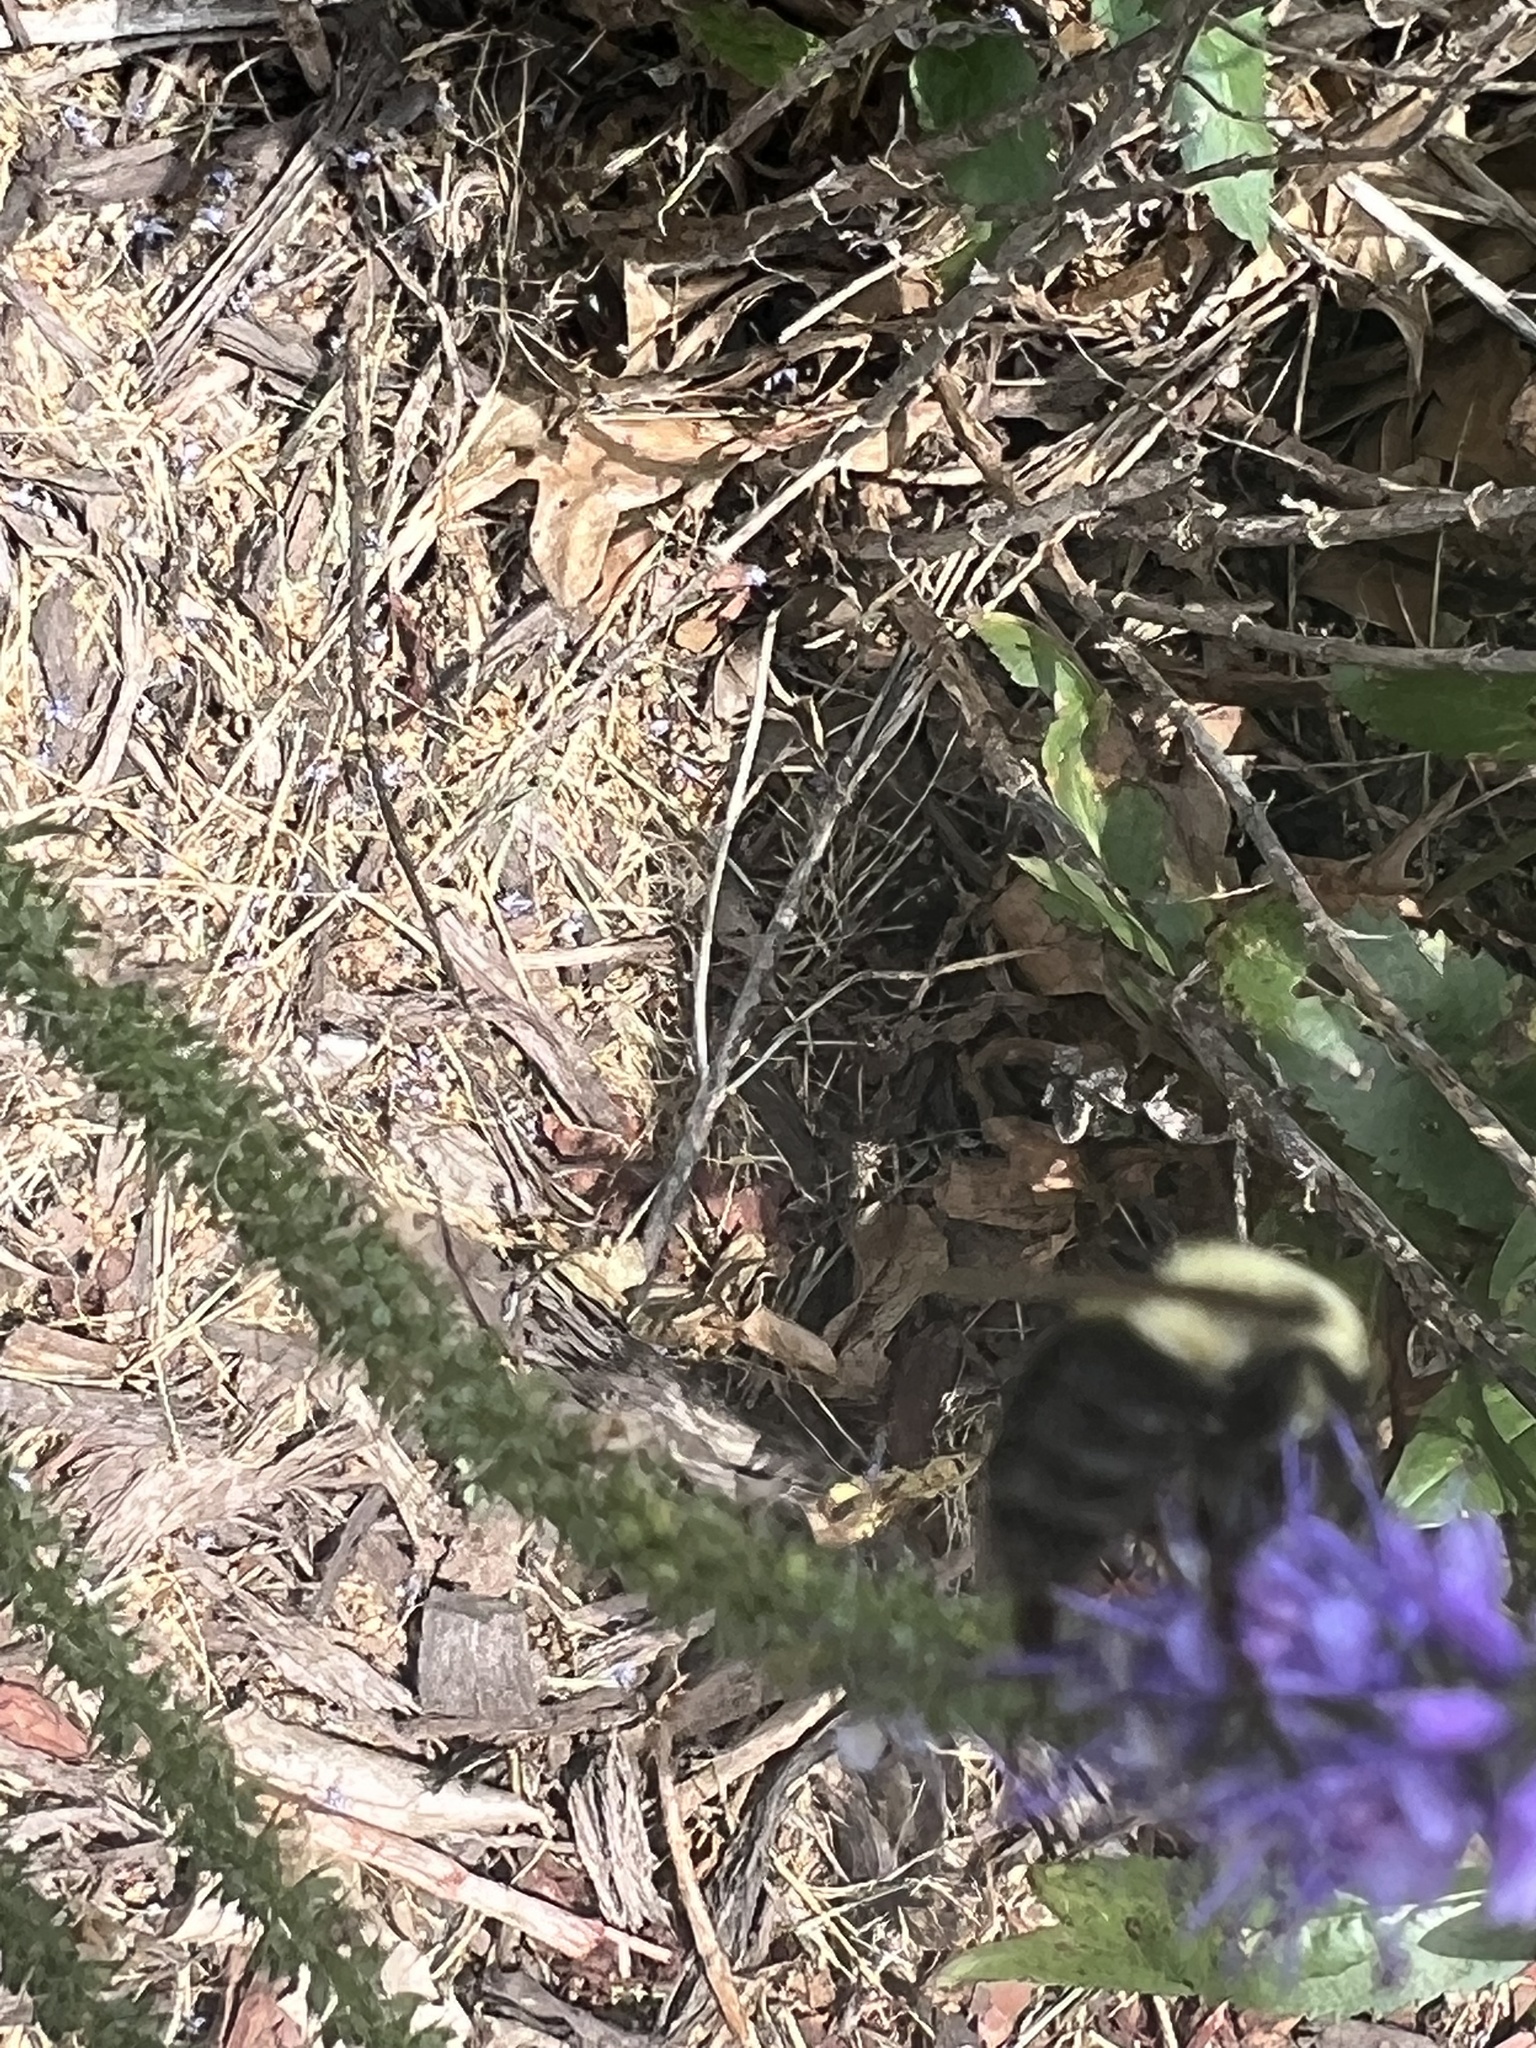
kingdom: Animalia
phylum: Arthropoda
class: Insecta
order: Hymenoptera
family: Apidae
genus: Bombus
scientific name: Bombus impatiens
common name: Common eastern bumble bee
